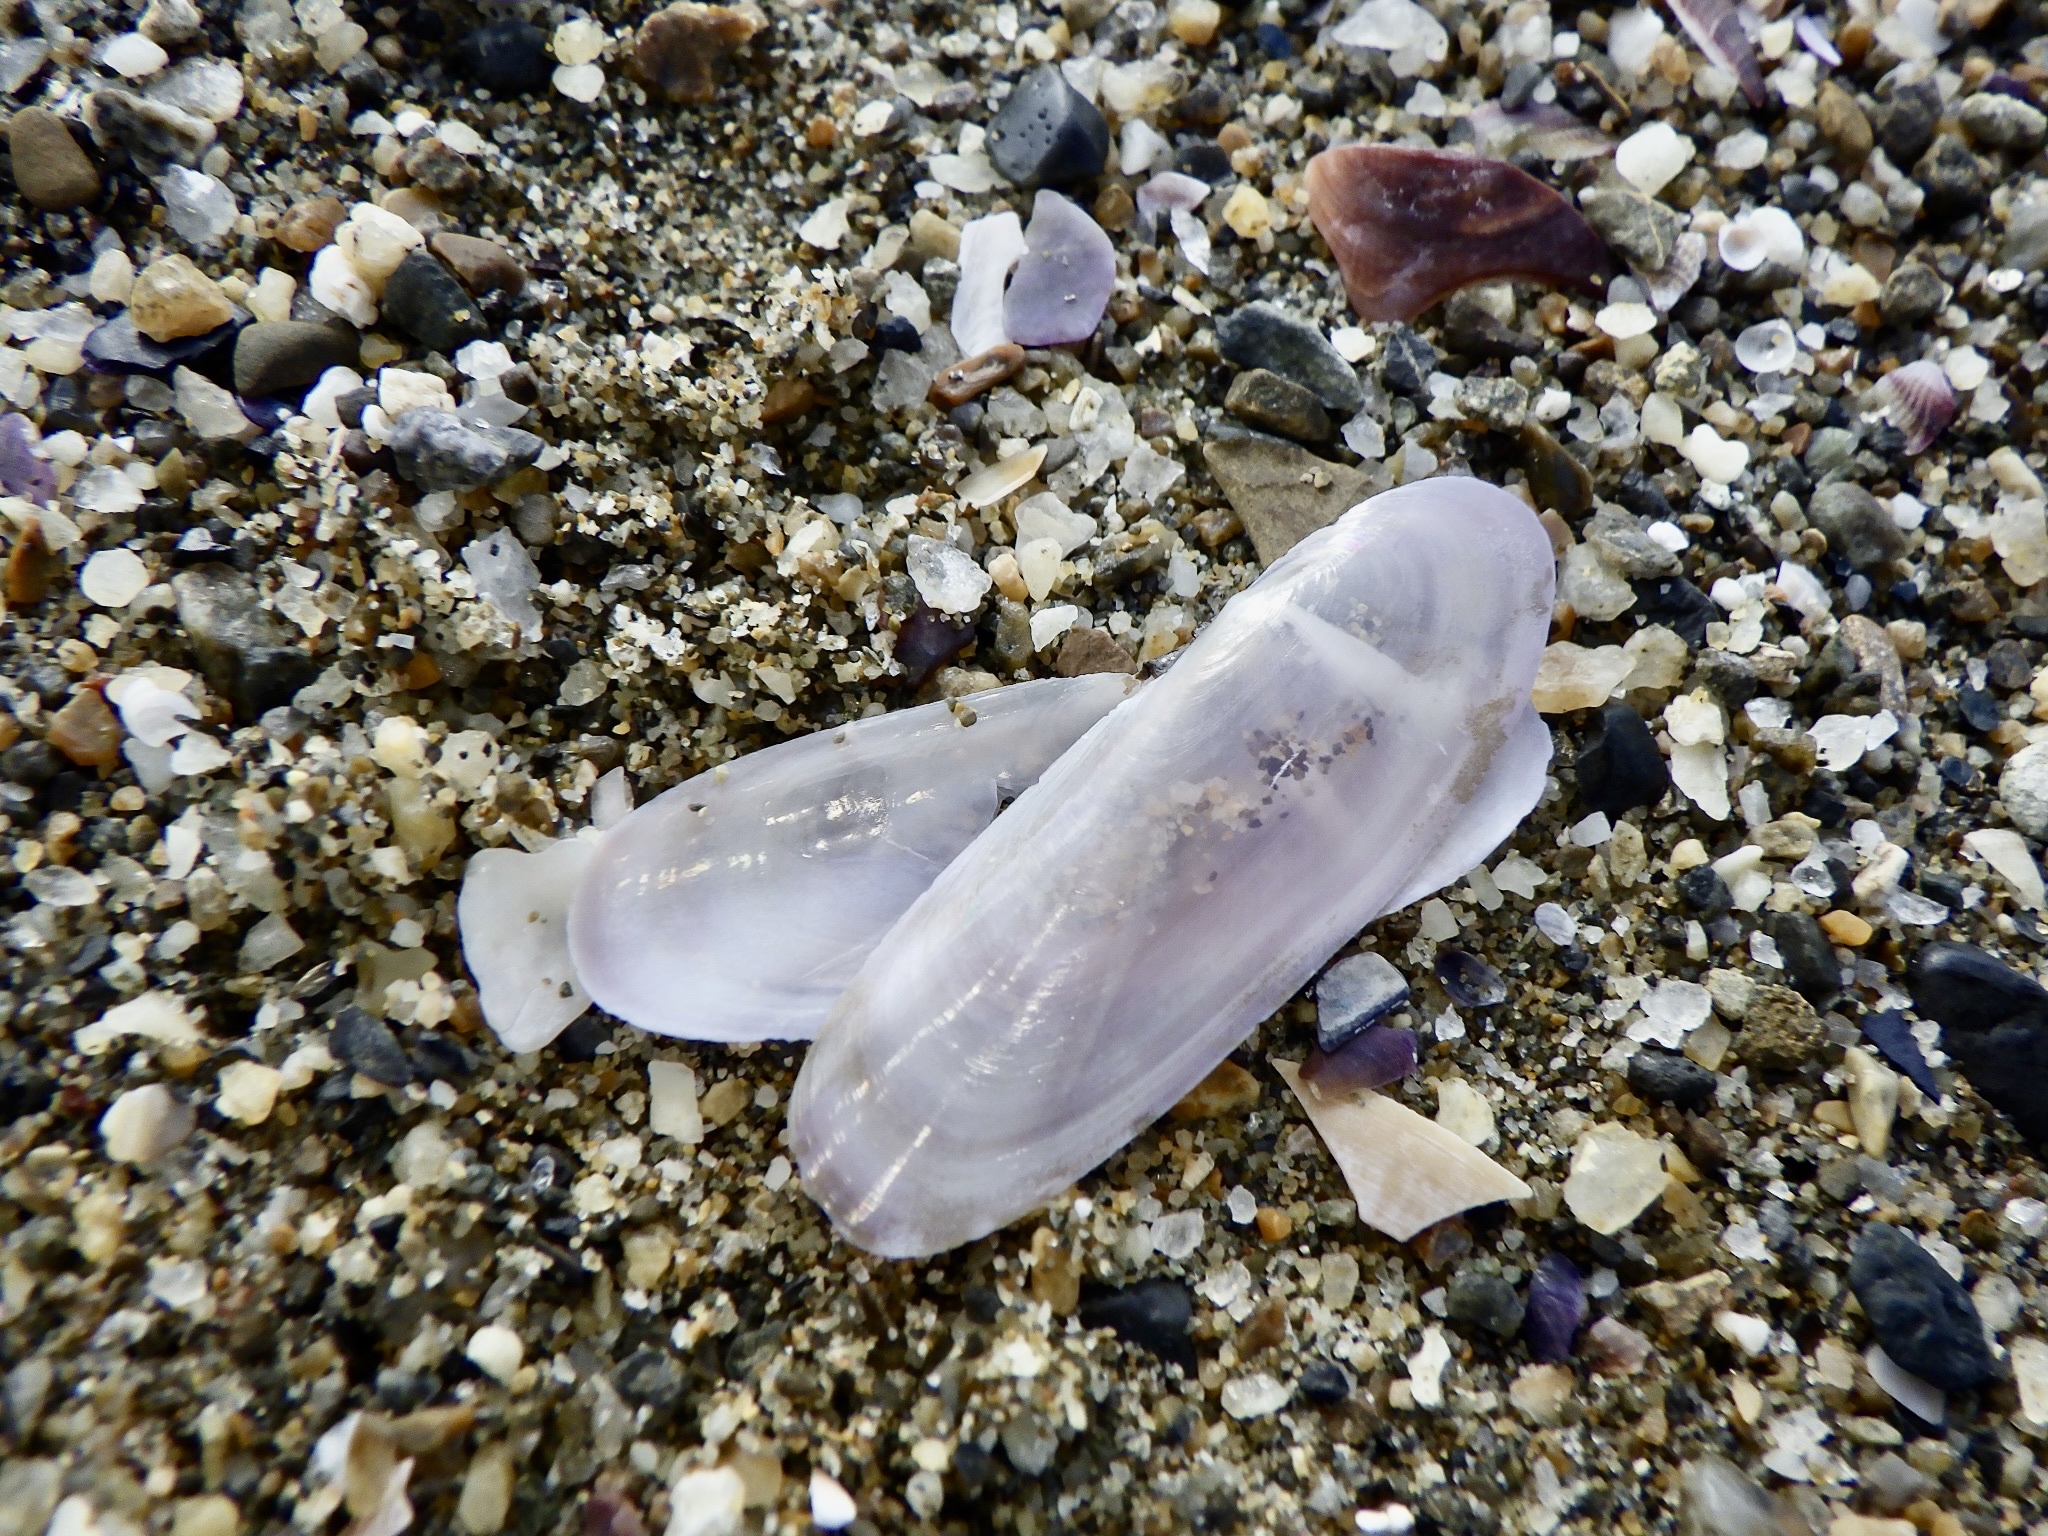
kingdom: Animalia
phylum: Mollusca
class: Bivalvia
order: Adapedonta
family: Pharidae
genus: Siliqua
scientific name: Siliqua pulchella
